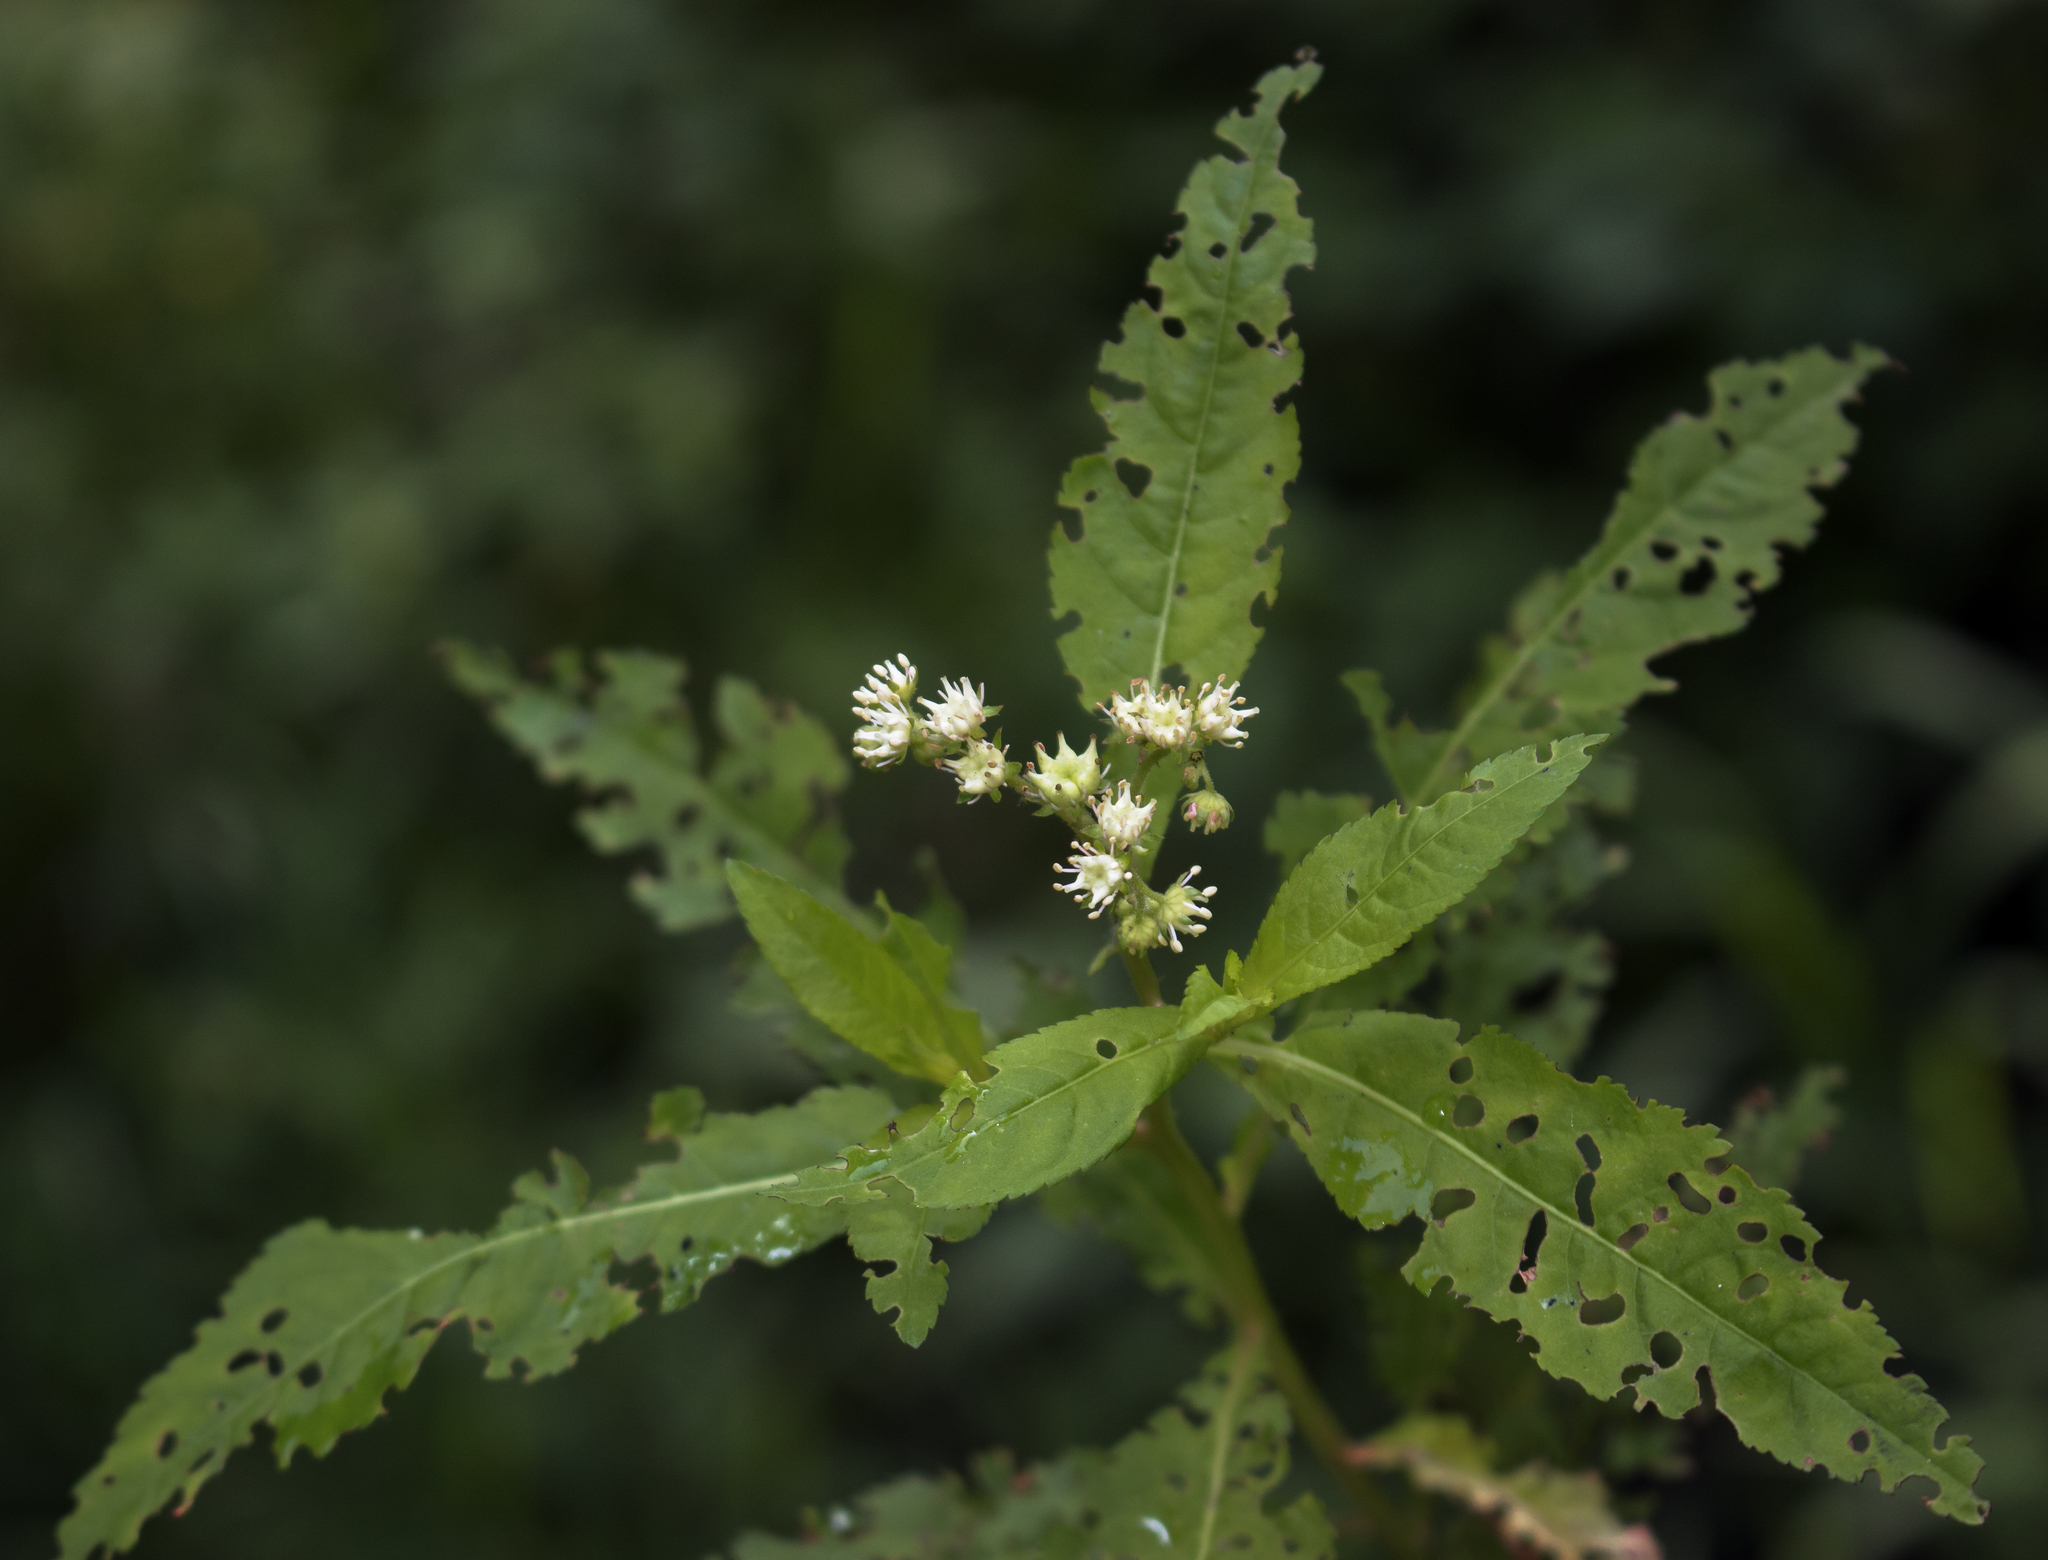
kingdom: Plantae
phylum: Tracheophyta
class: Magnoliopsida
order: Saxifragales
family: Penthoraceae
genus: Penthorum
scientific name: Penthorum sedoides
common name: Ditch stonecrop
